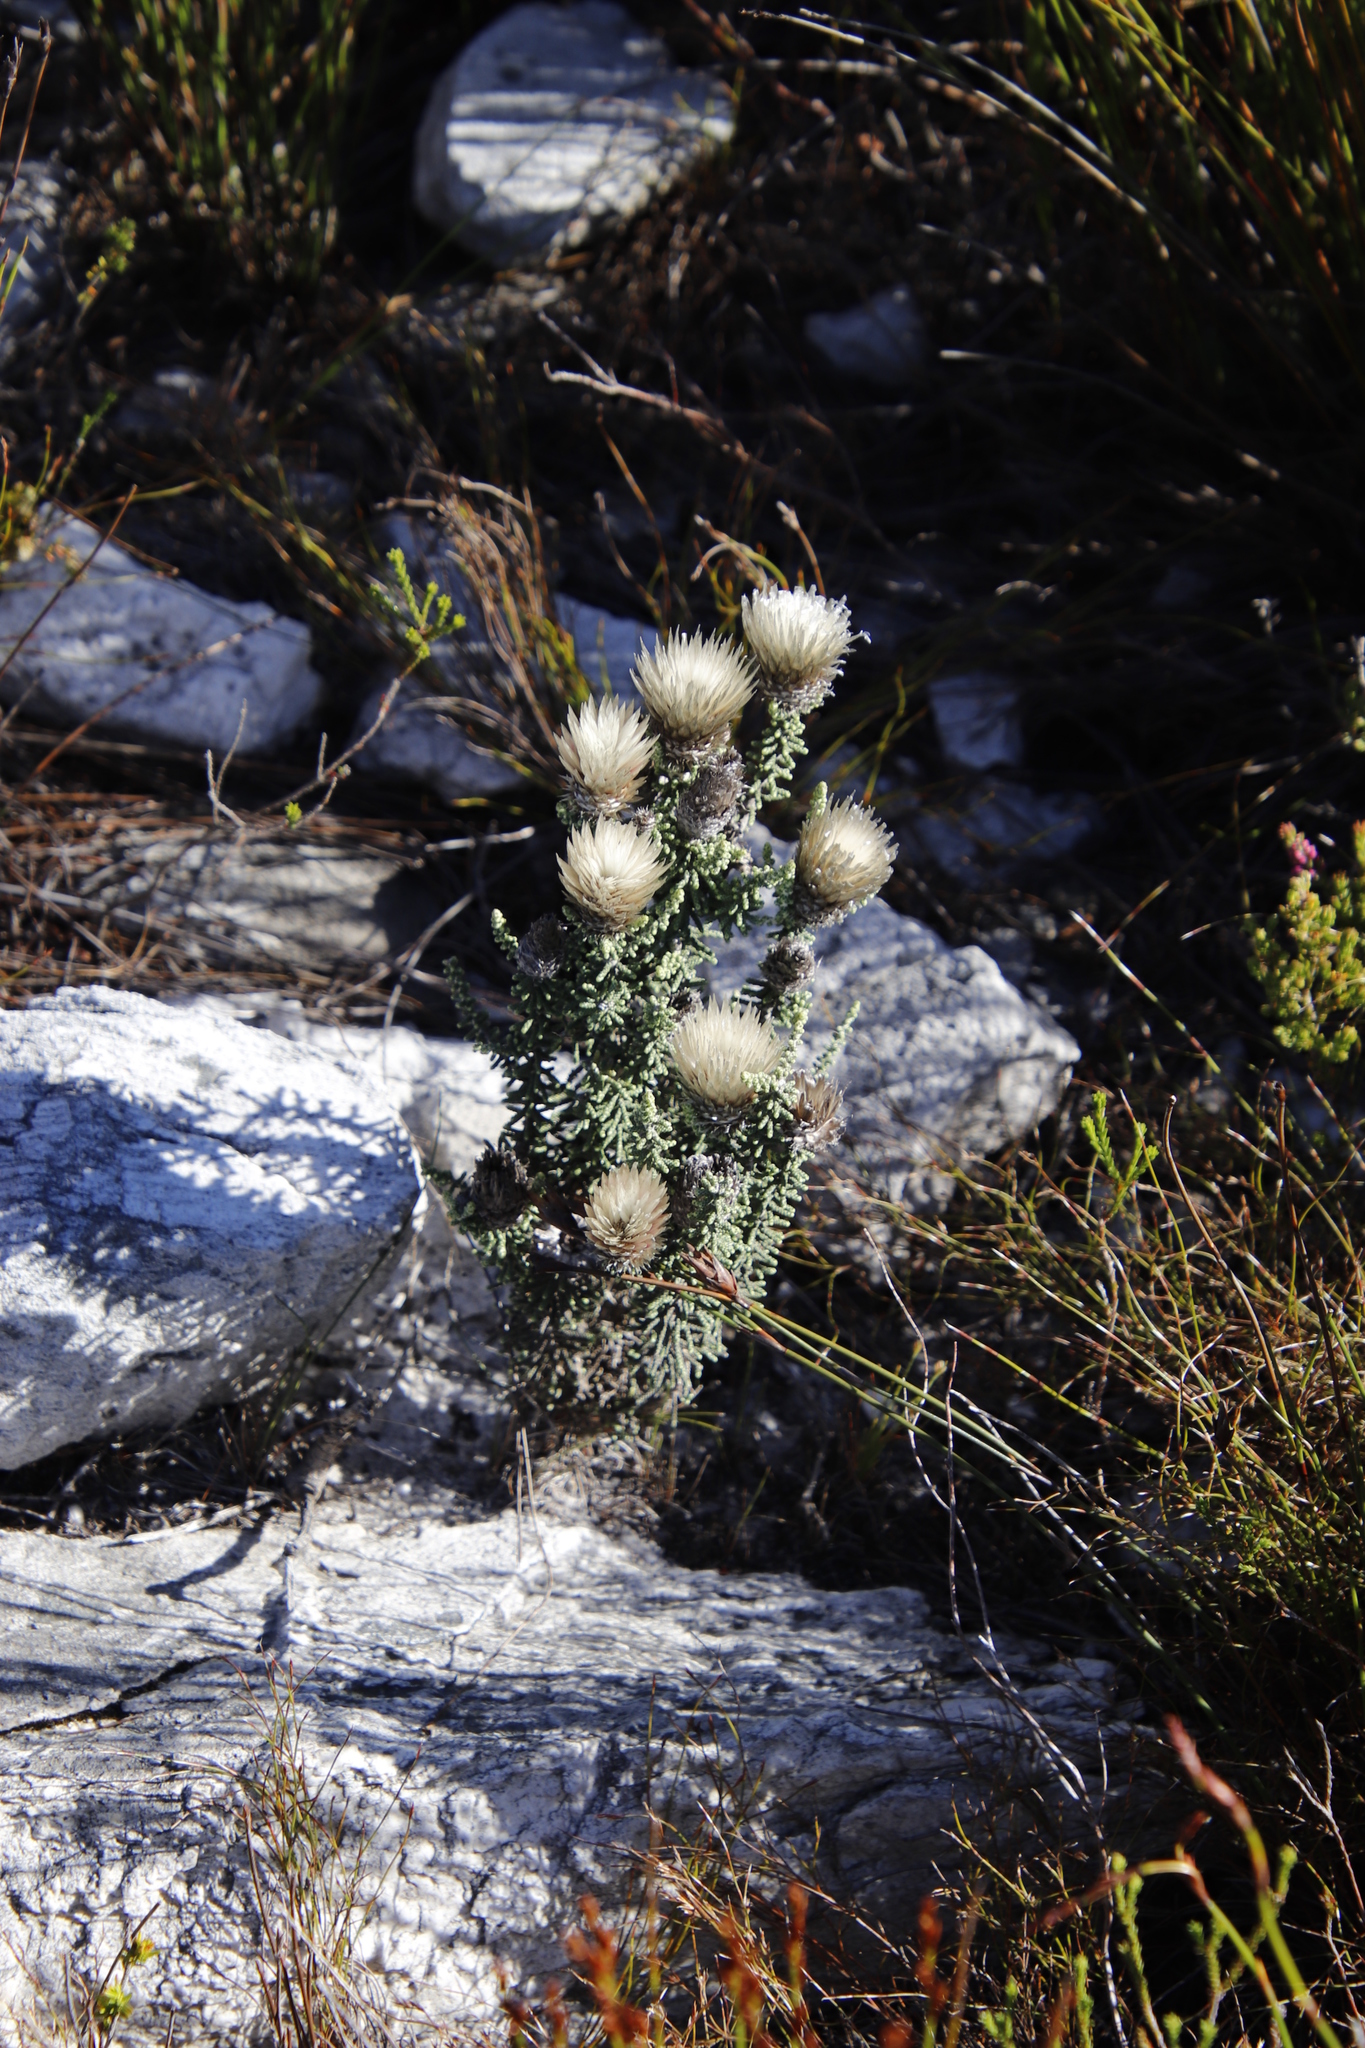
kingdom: Plantae
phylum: Tracheophyta
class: Magnoliopsida
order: Asterales
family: Asteraceae
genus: Phaenocoma
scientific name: Phaenocoma prolifera
